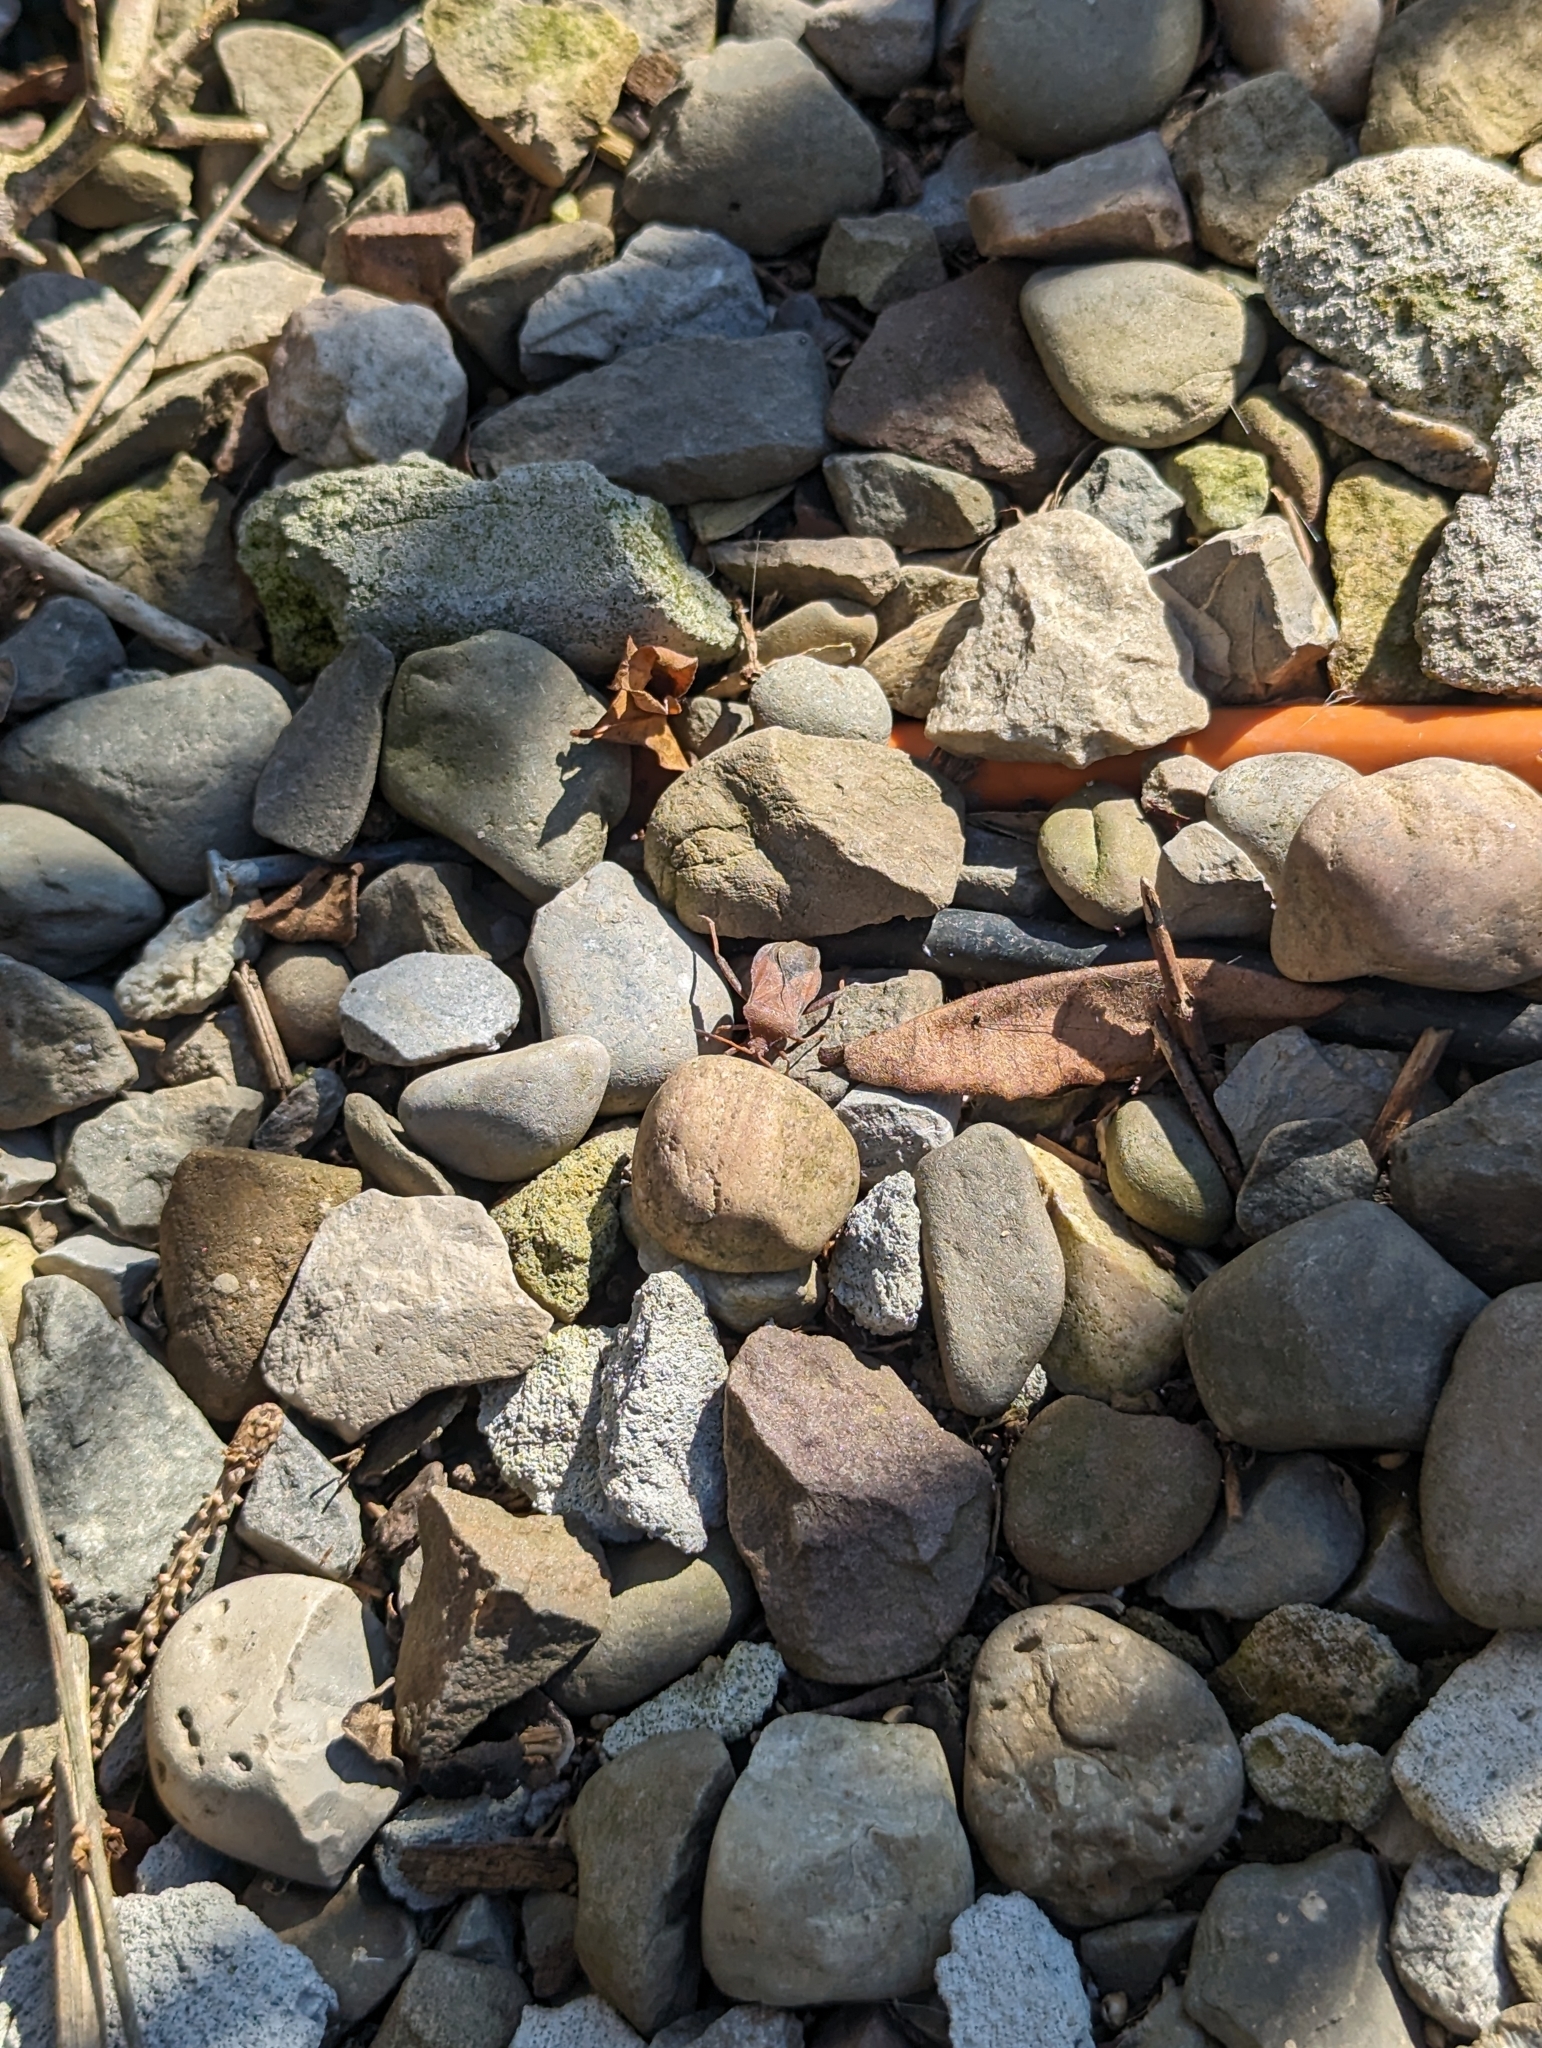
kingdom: Animalia
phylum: Arthropoda
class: Insecta
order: Hemiptera
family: Coreidae
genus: Euthochtha
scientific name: Euthochtha galeator
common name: Helmeted squash bug
